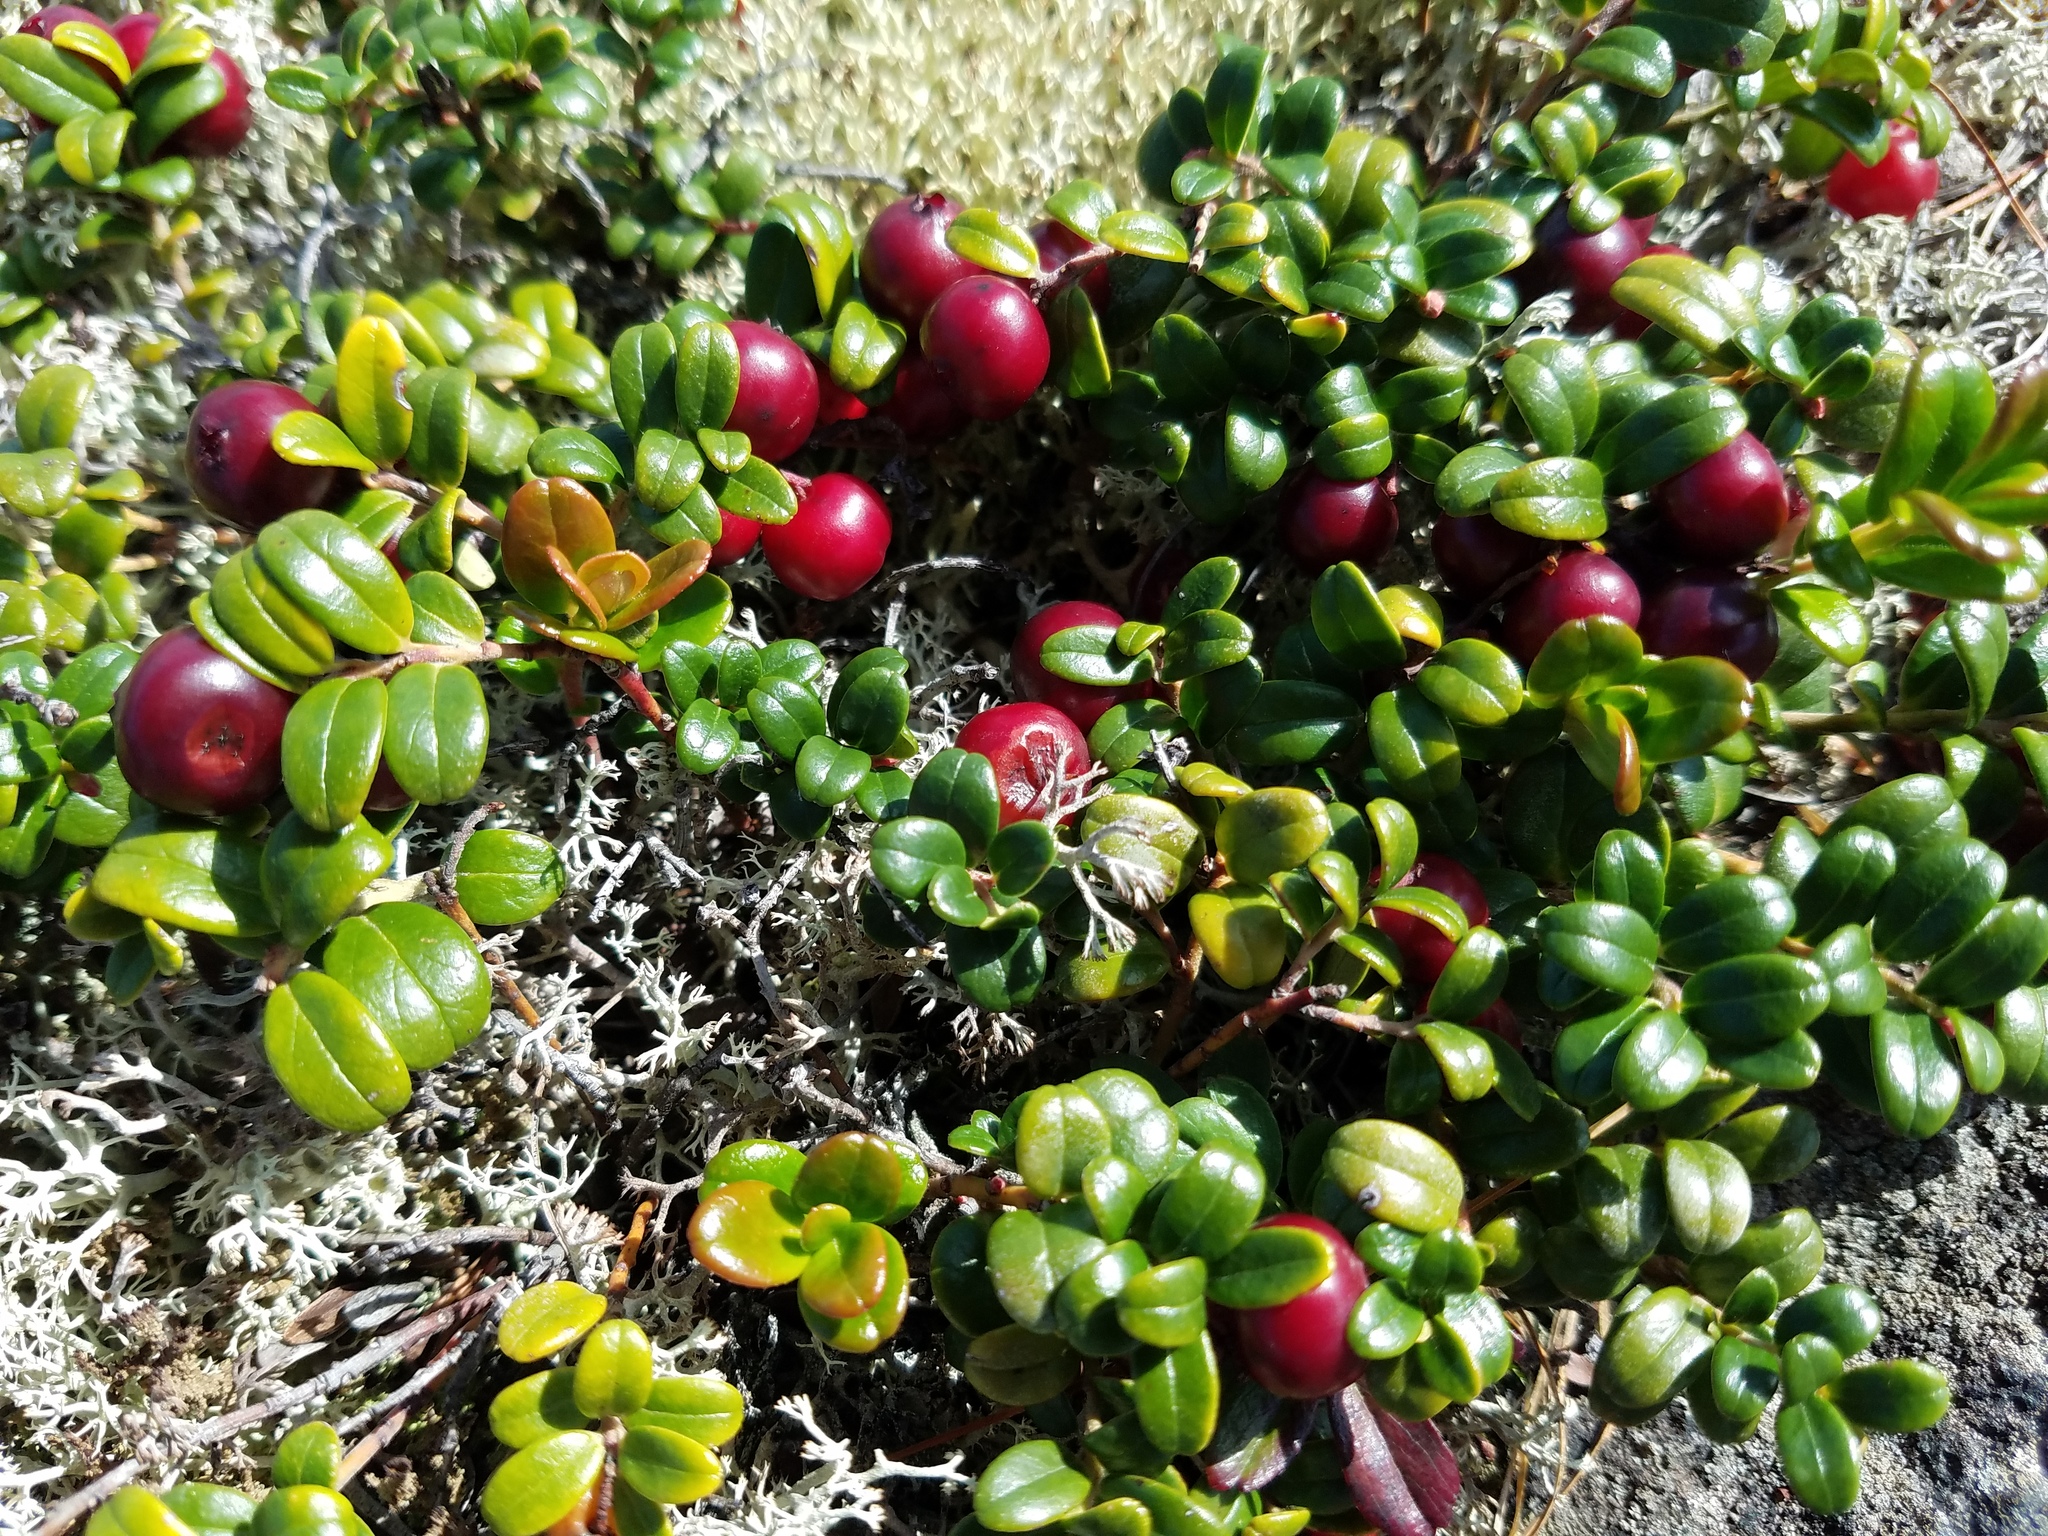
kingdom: Plantae
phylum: Tracheophyta
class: Magnoliopsida
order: Ericales
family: Ericaceae
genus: Vaccinium
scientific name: Vaccinium vitis-idaea
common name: Cowberry
